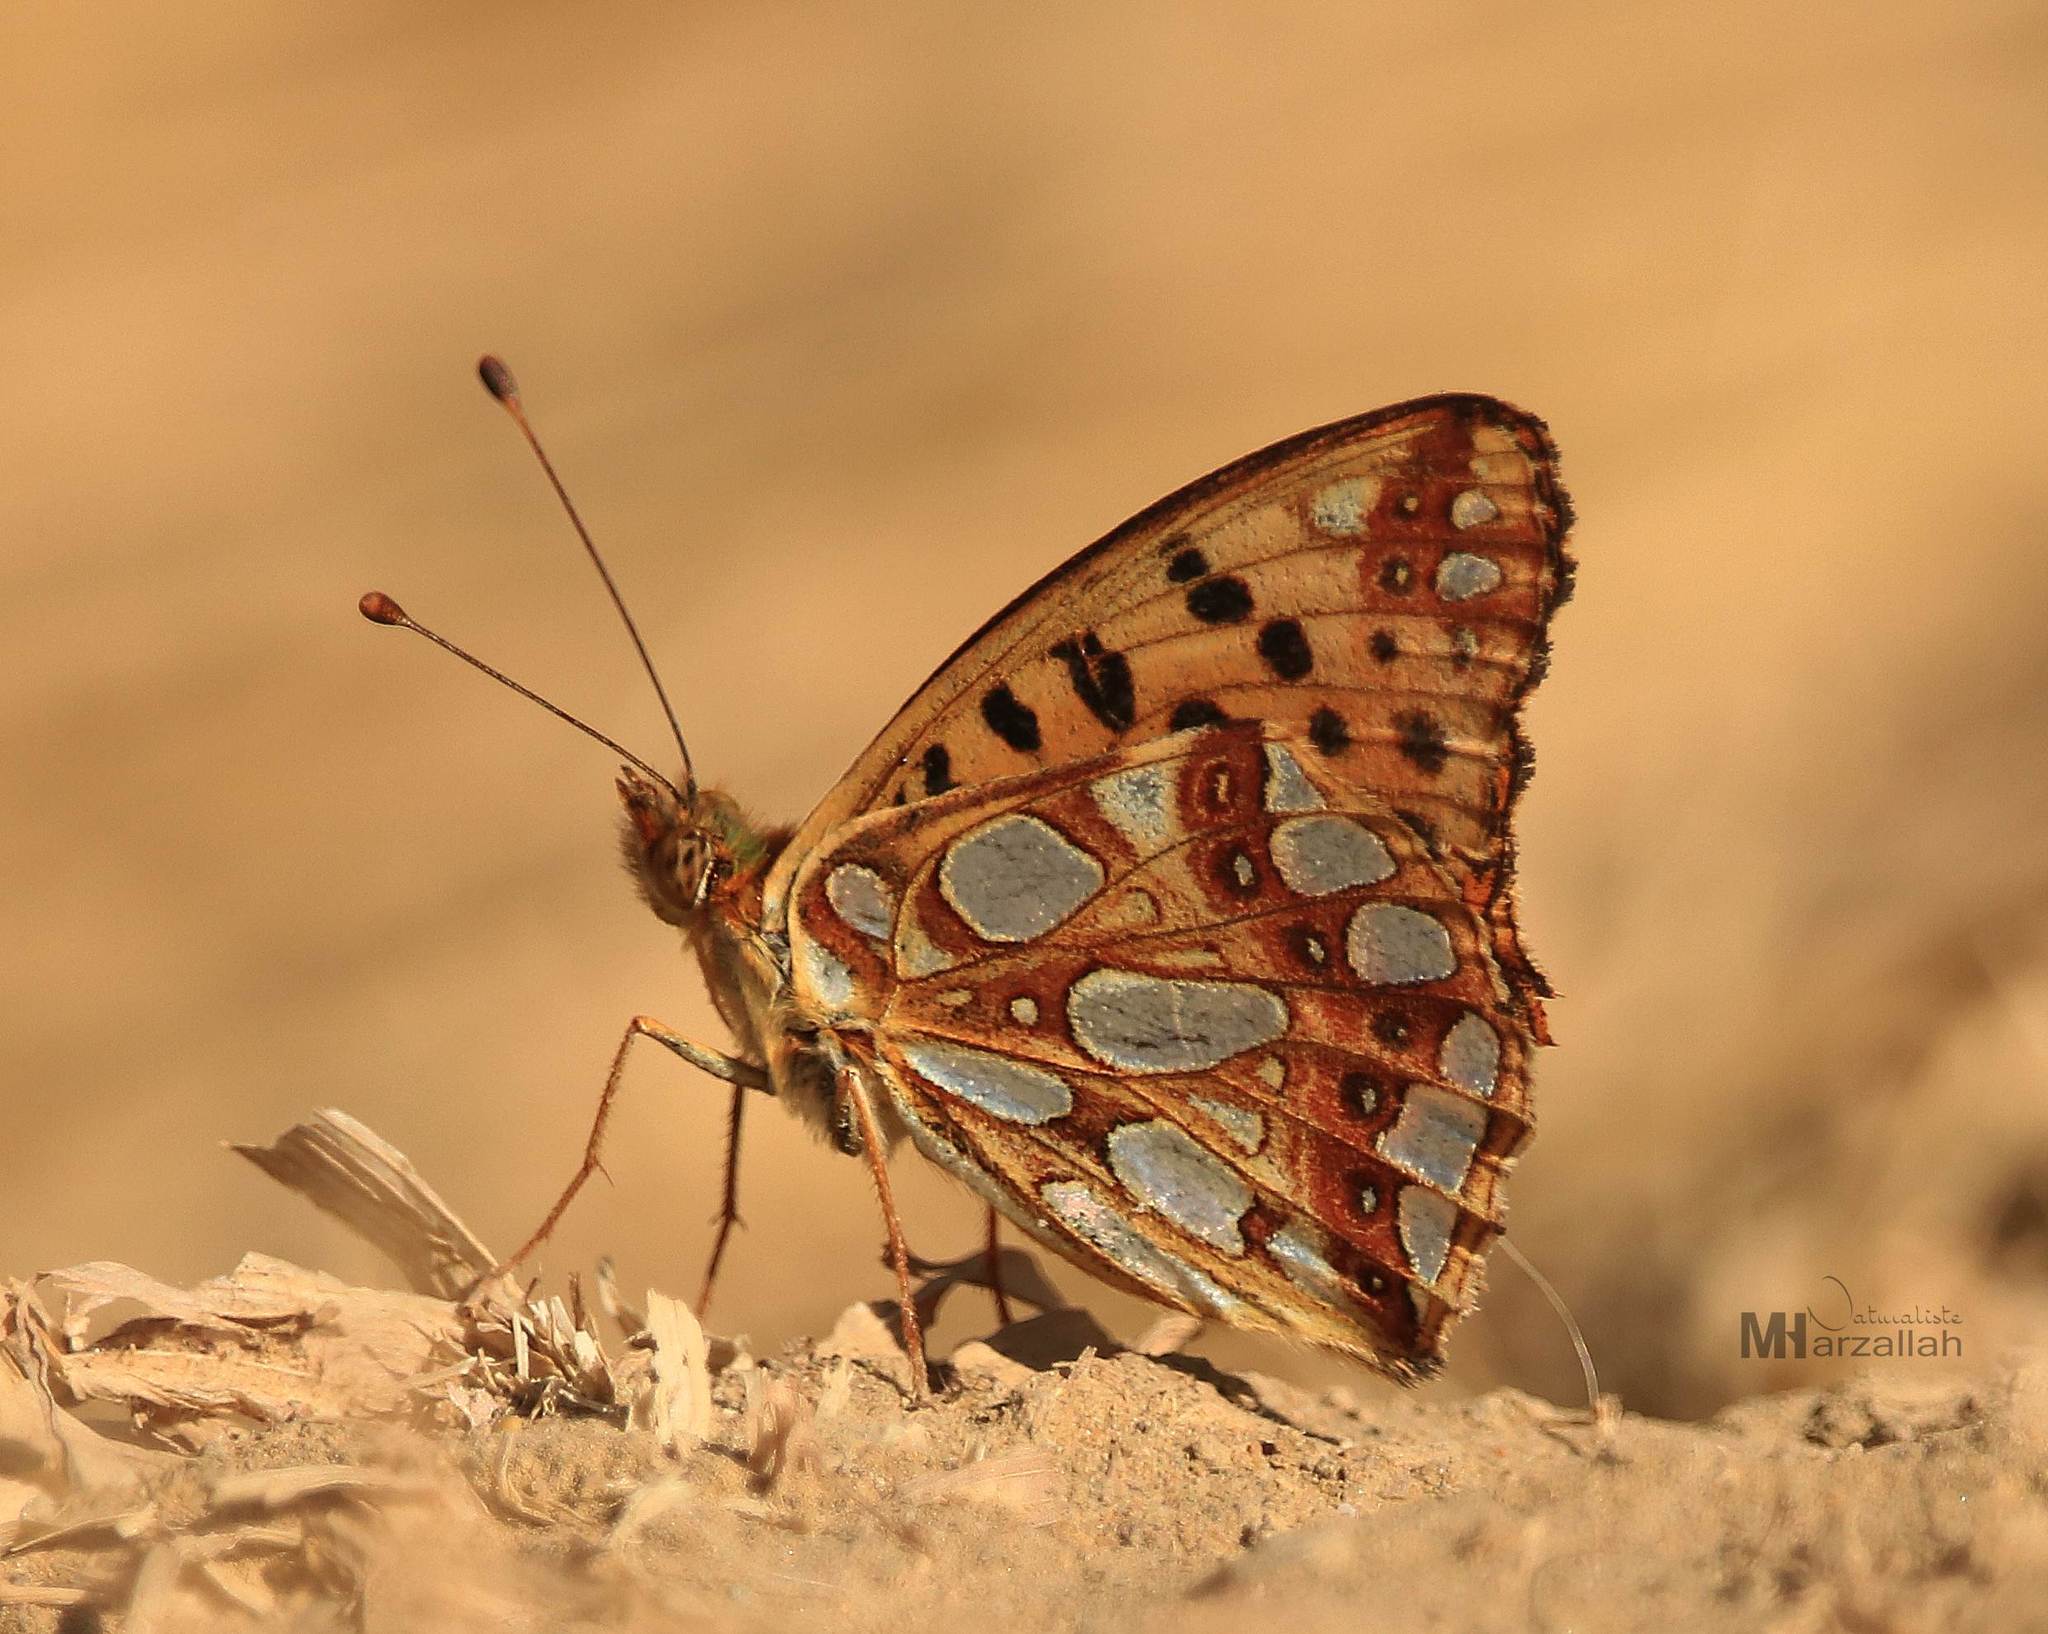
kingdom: Animalia
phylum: Arthropoda
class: Insecta
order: Lepidoptera
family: Nymphalidae
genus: Issoria
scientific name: Issoria lathonia
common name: Queen of spain fritillary
